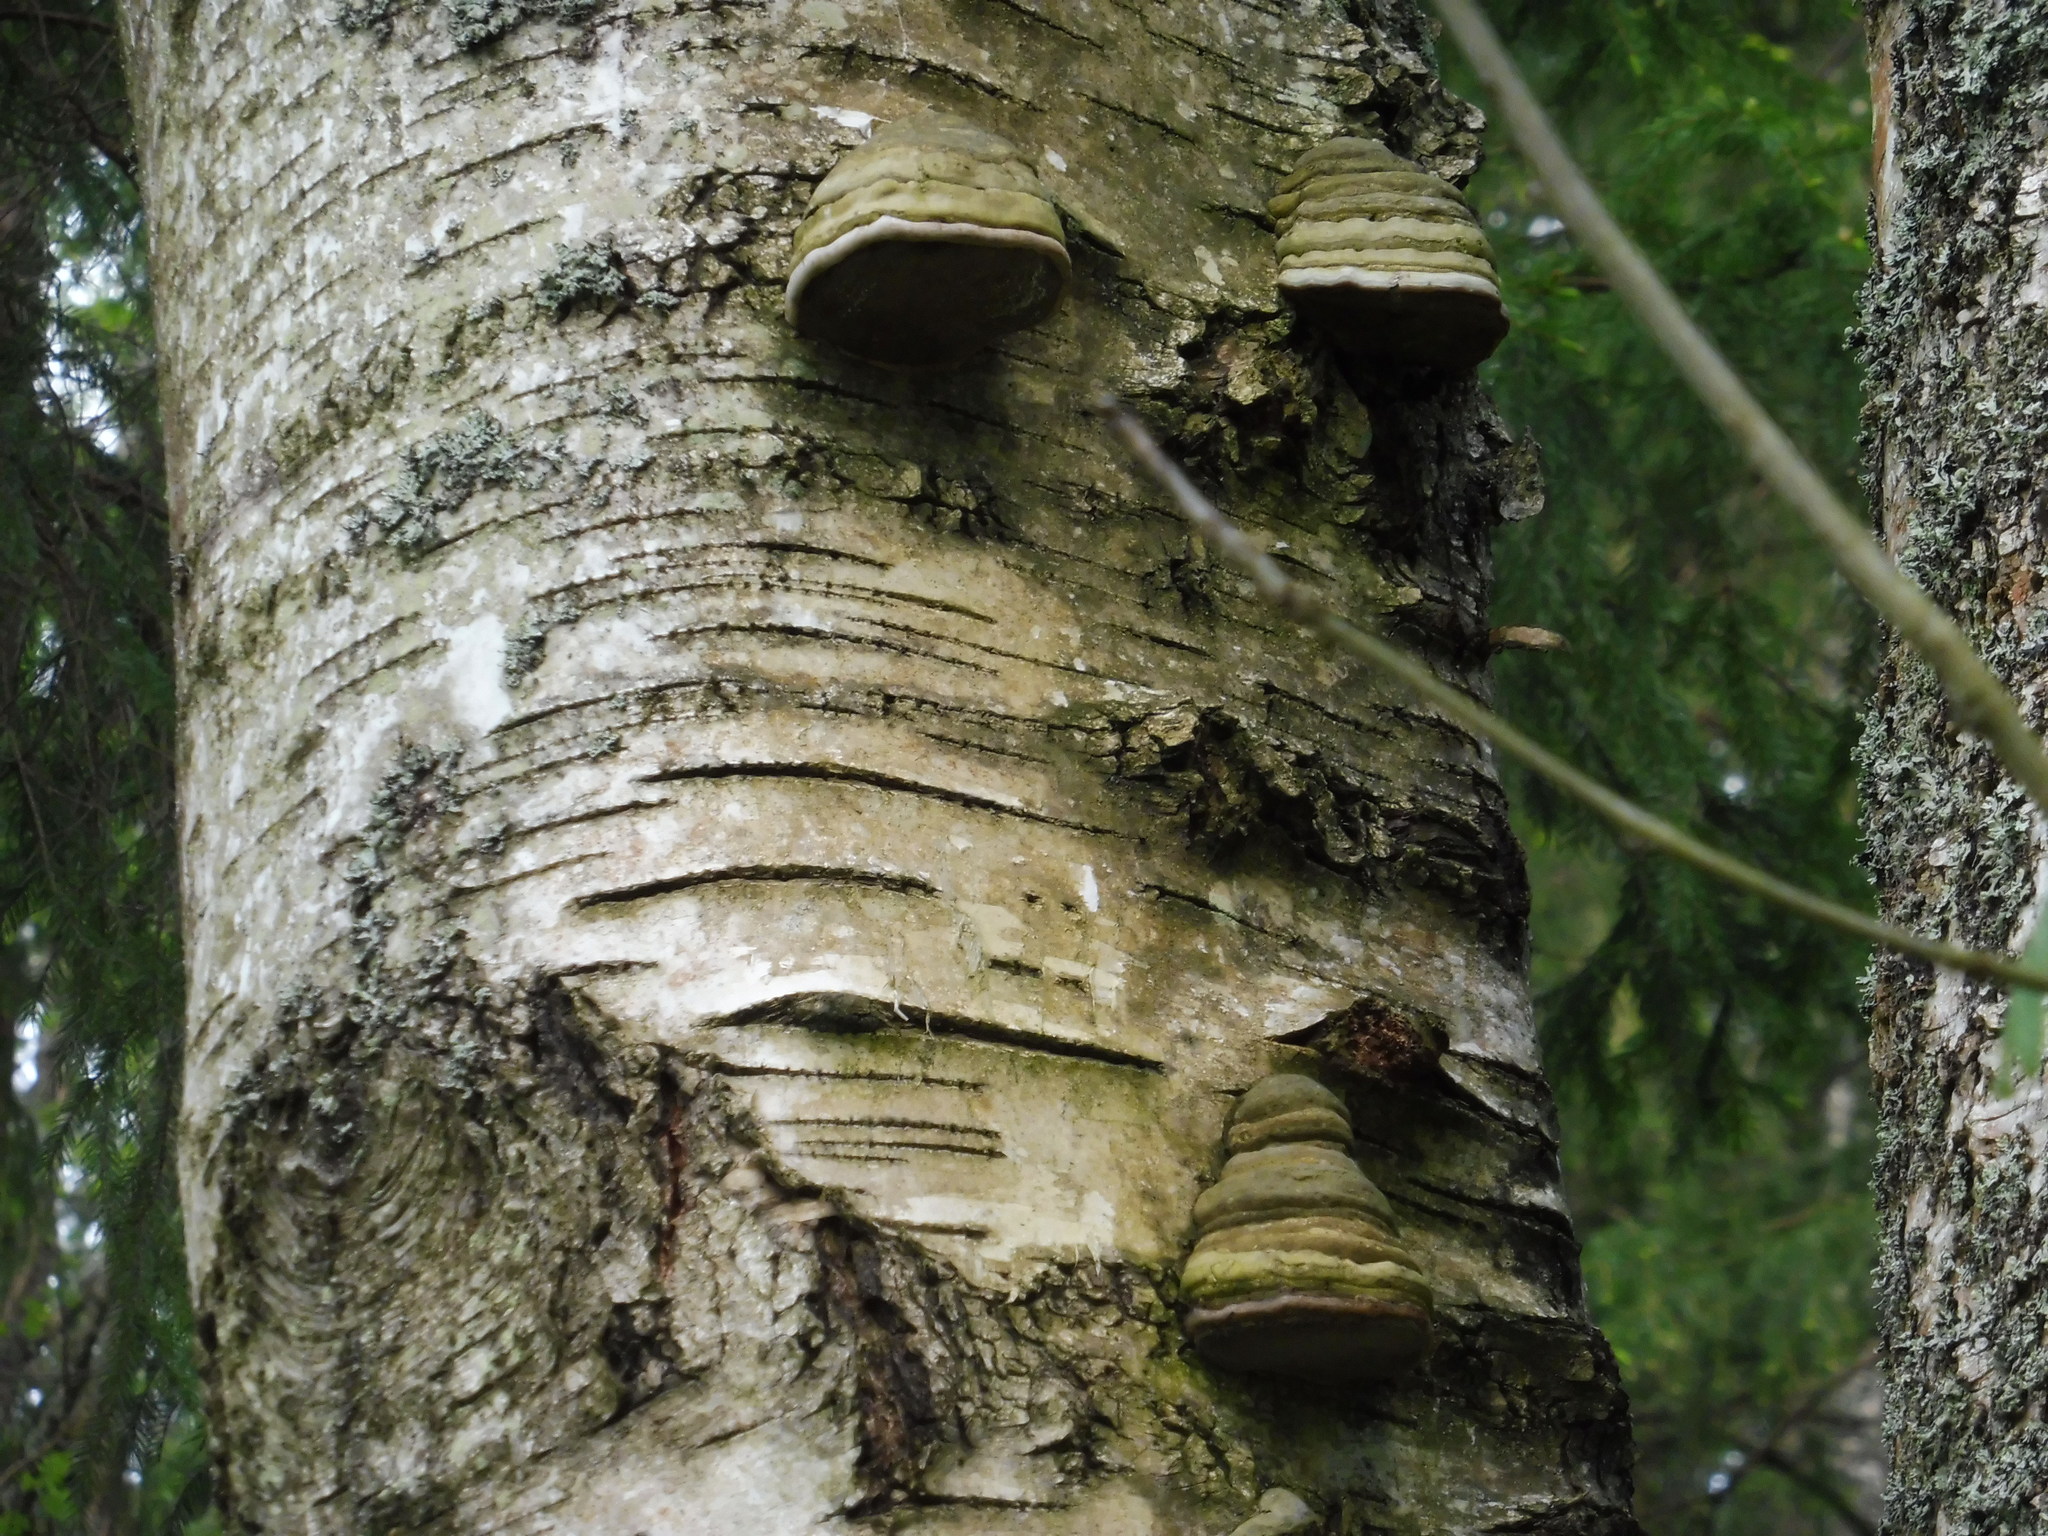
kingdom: Fungi
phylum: Basidiomycota
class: Agaricomycetes
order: Polyporales
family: Polyporaceae
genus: Fomes
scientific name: Fomes fomentarius
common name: Hoof fungus
